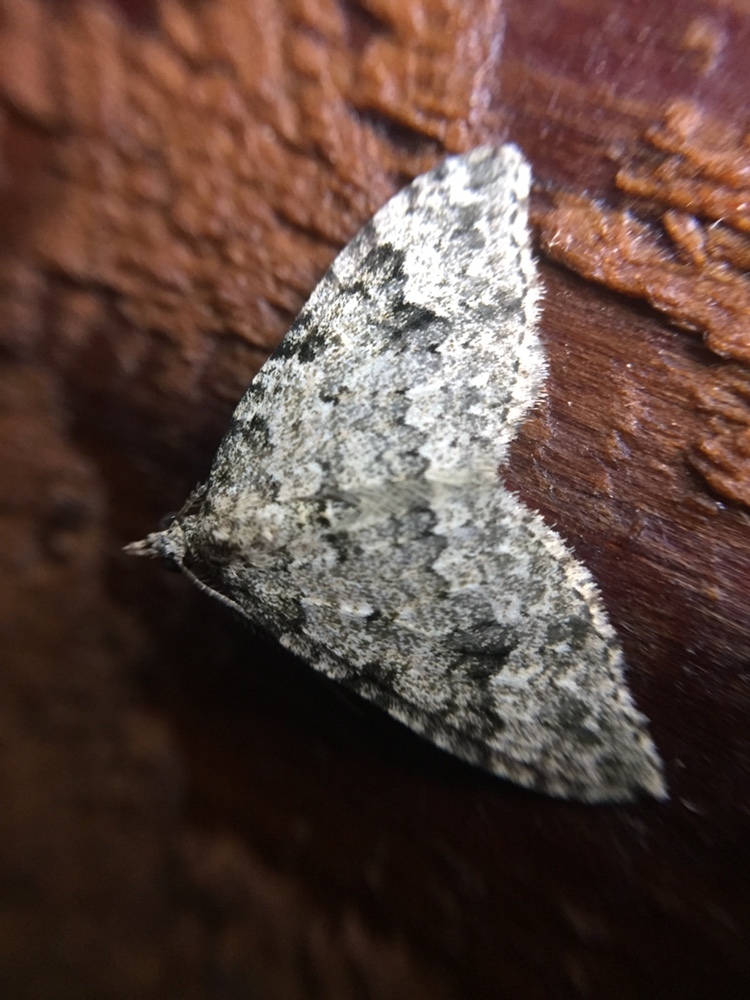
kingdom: Animalia
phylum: Arthropoda
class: Insecta
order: Lepidoptera
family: Geometridae
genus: Helastia
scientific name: Helastia cinerearia
